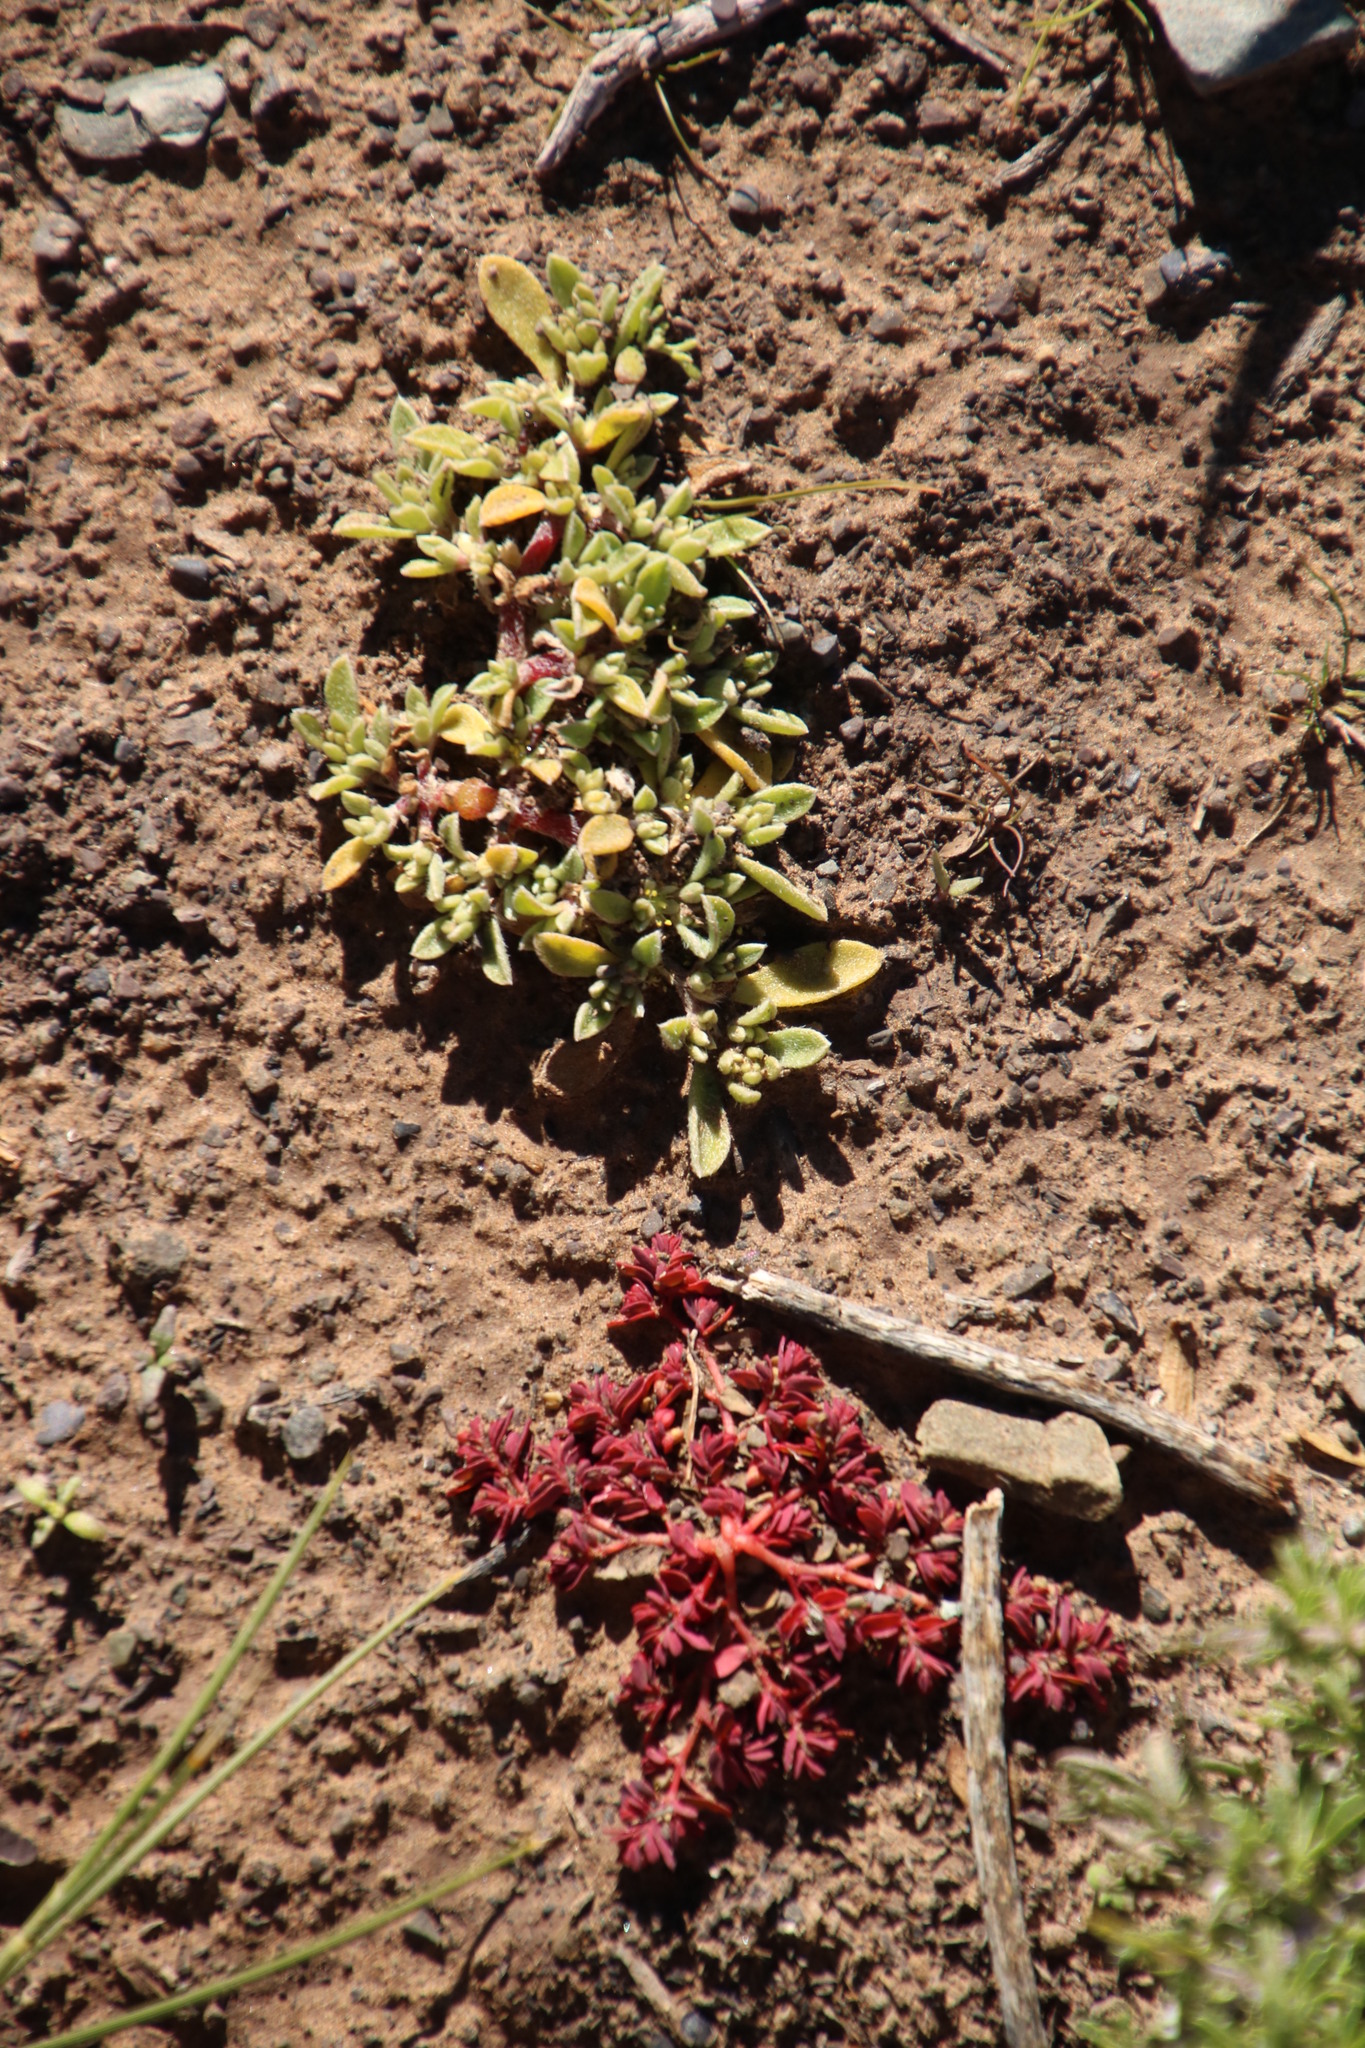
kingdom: Plantae
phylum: Tracheophyta
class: Magnoliopsida
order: Malpighiales
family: Euphorbiaceae
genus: Euphorbia
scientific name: Euphorbia inaequilatera
